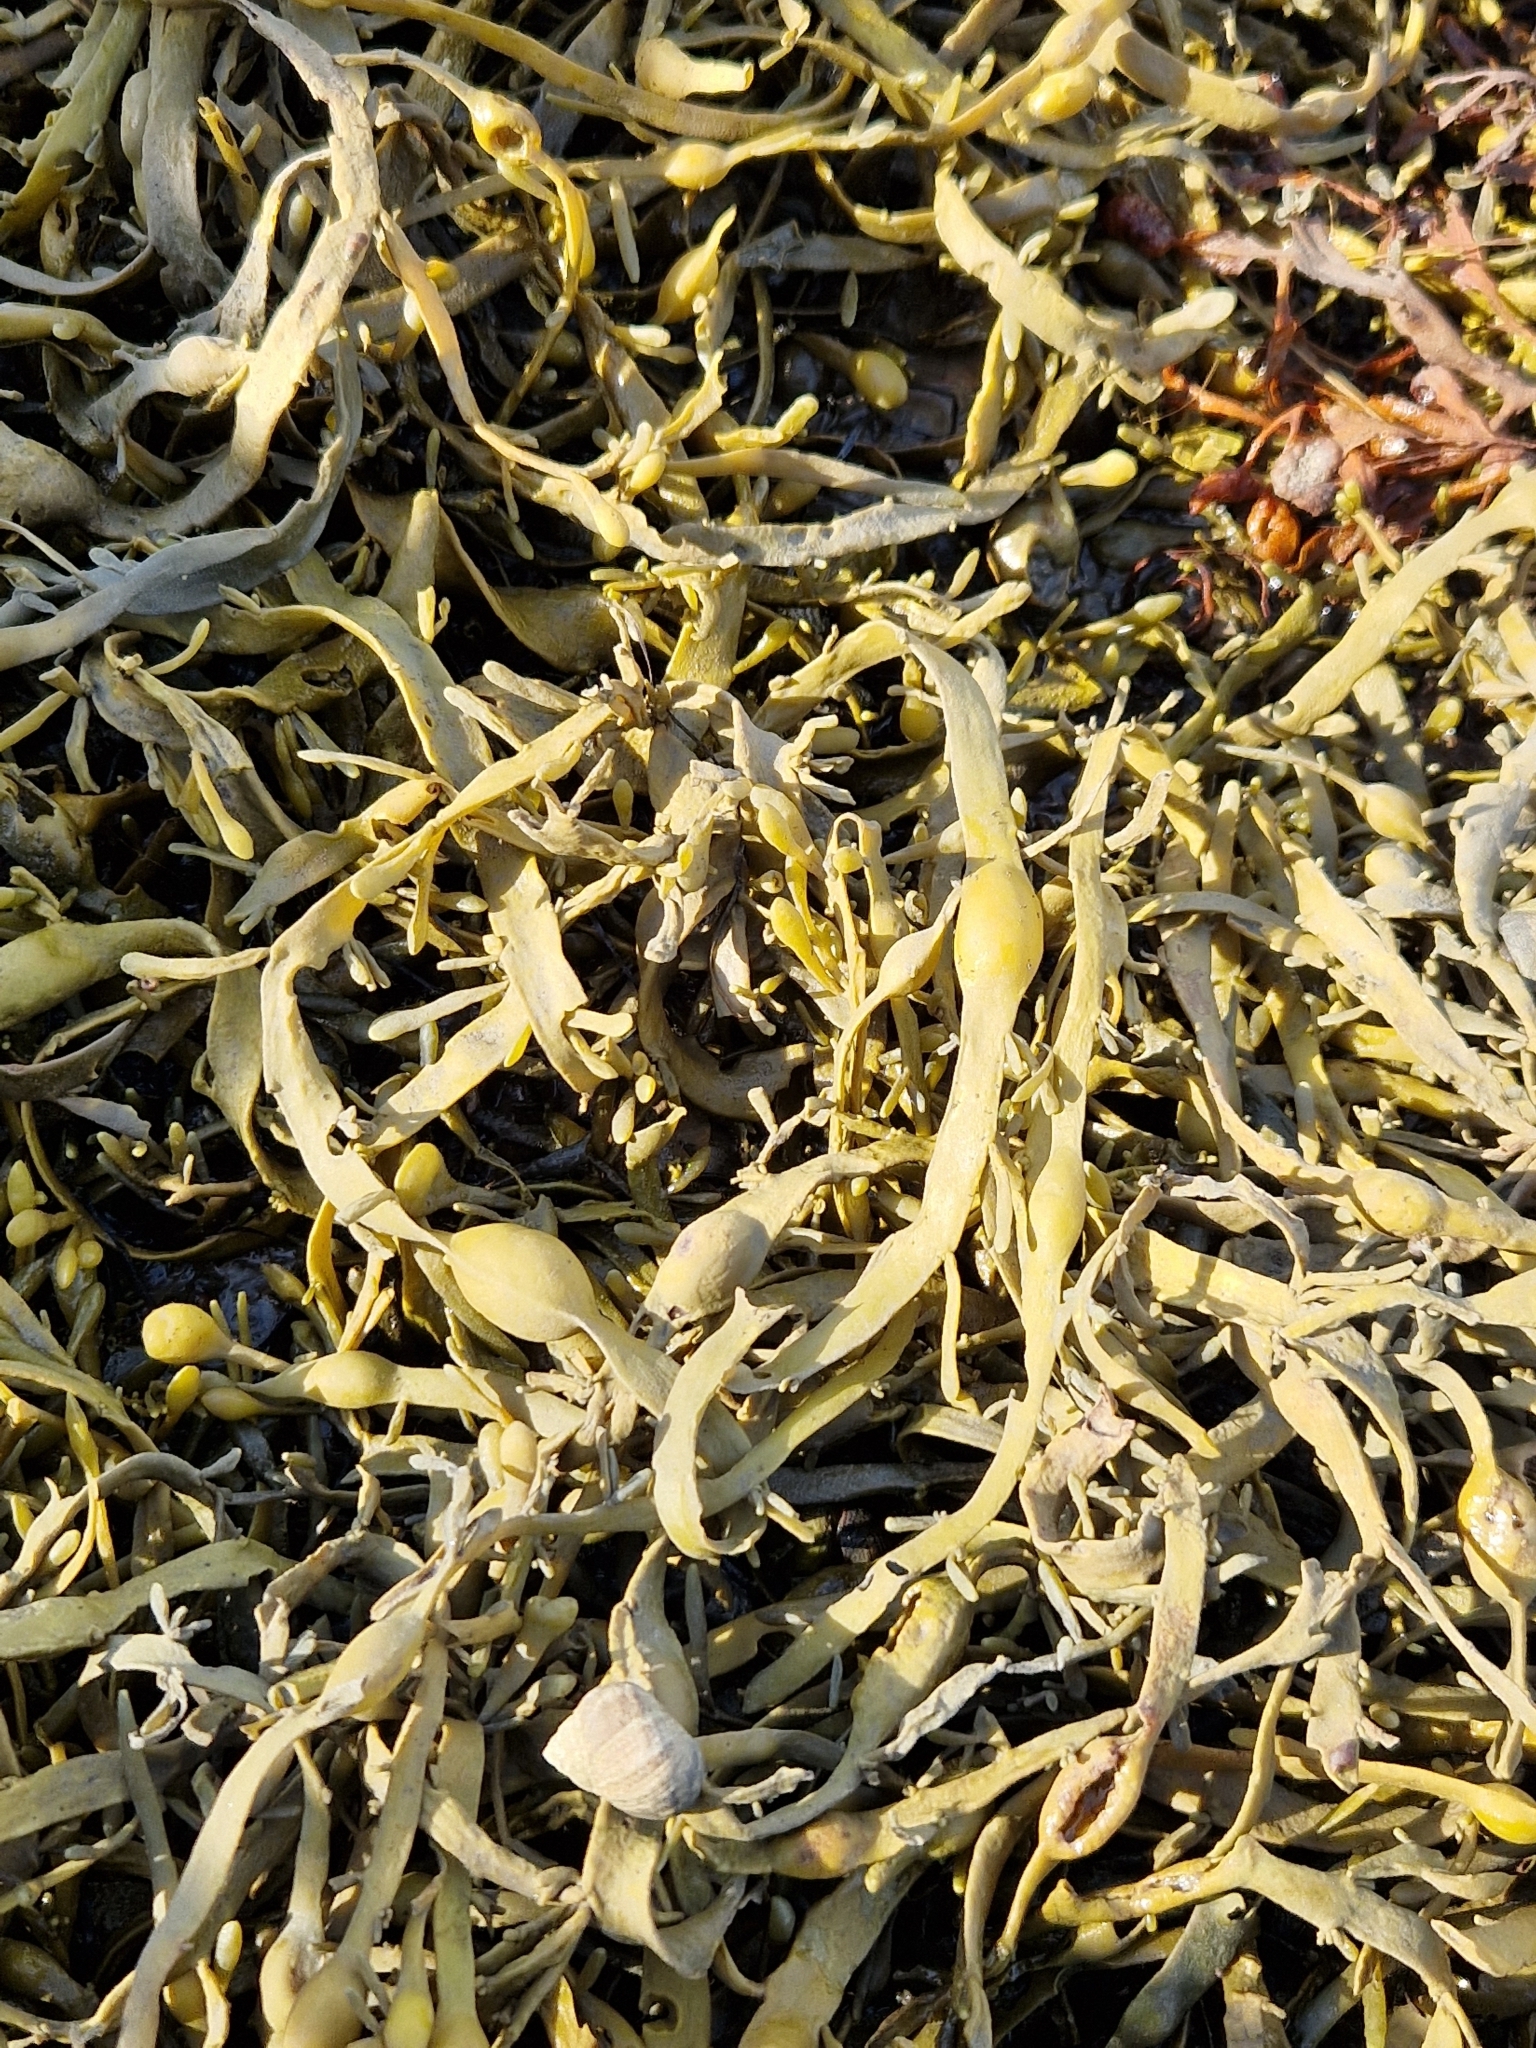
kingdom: Chromista
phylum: Ochrophyta
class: Phaeophyceae
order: Fucales
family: Fucaceae
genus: Ascophyllum
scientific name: Ascophyllum nodosum
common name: Knotted wrack
